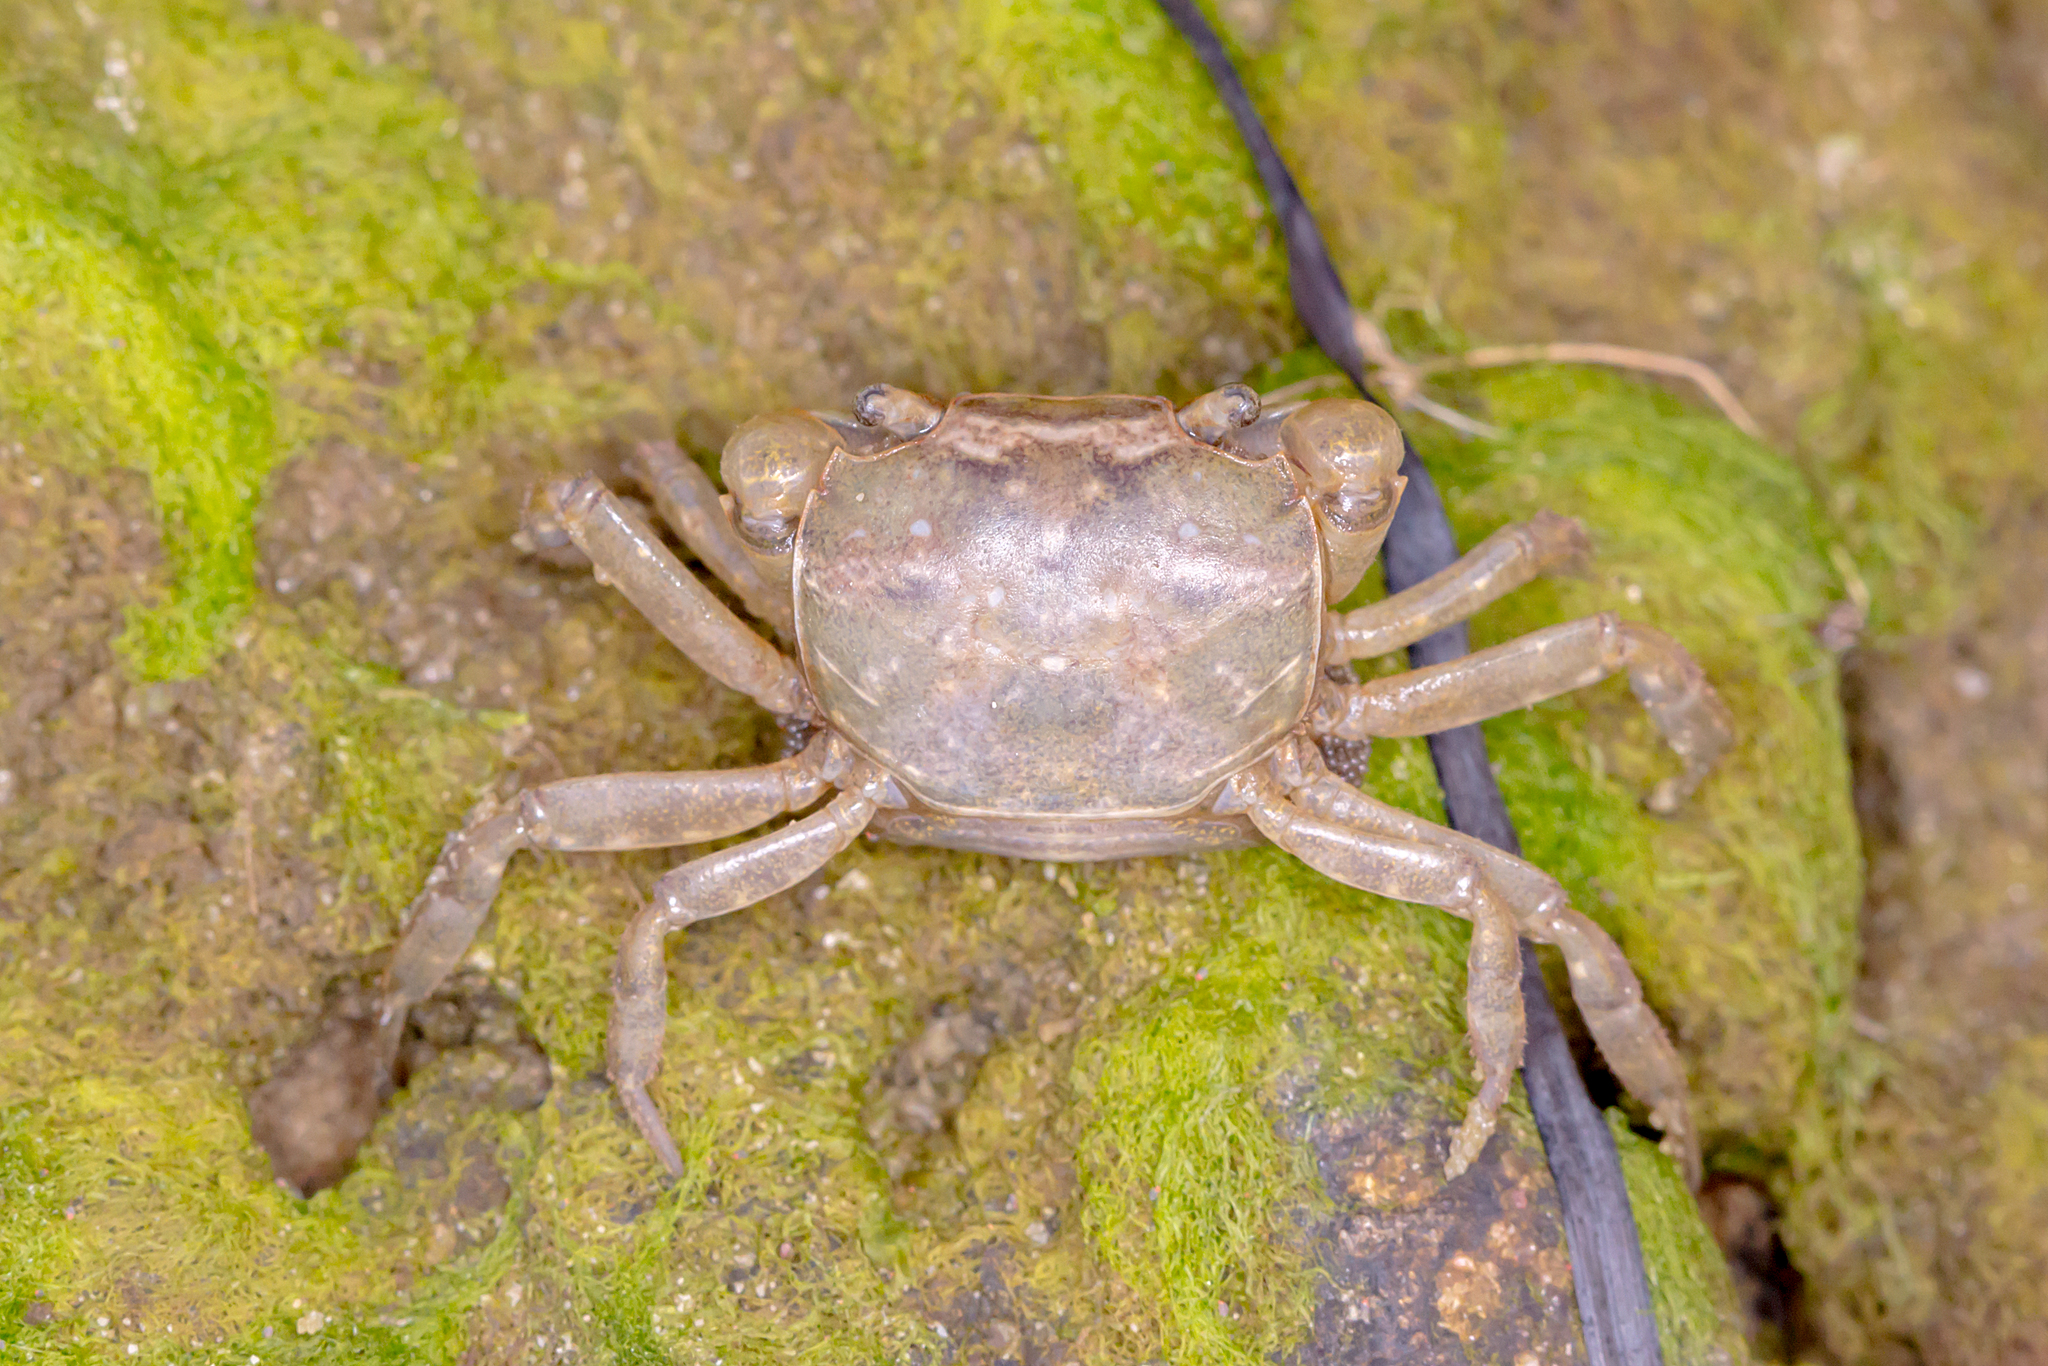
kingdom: Animalia
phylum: Arthropoda
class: Malacostraca
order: Decapoda
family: Varunidae
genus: Helograpsus
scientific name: Helograpsus haswellianus
